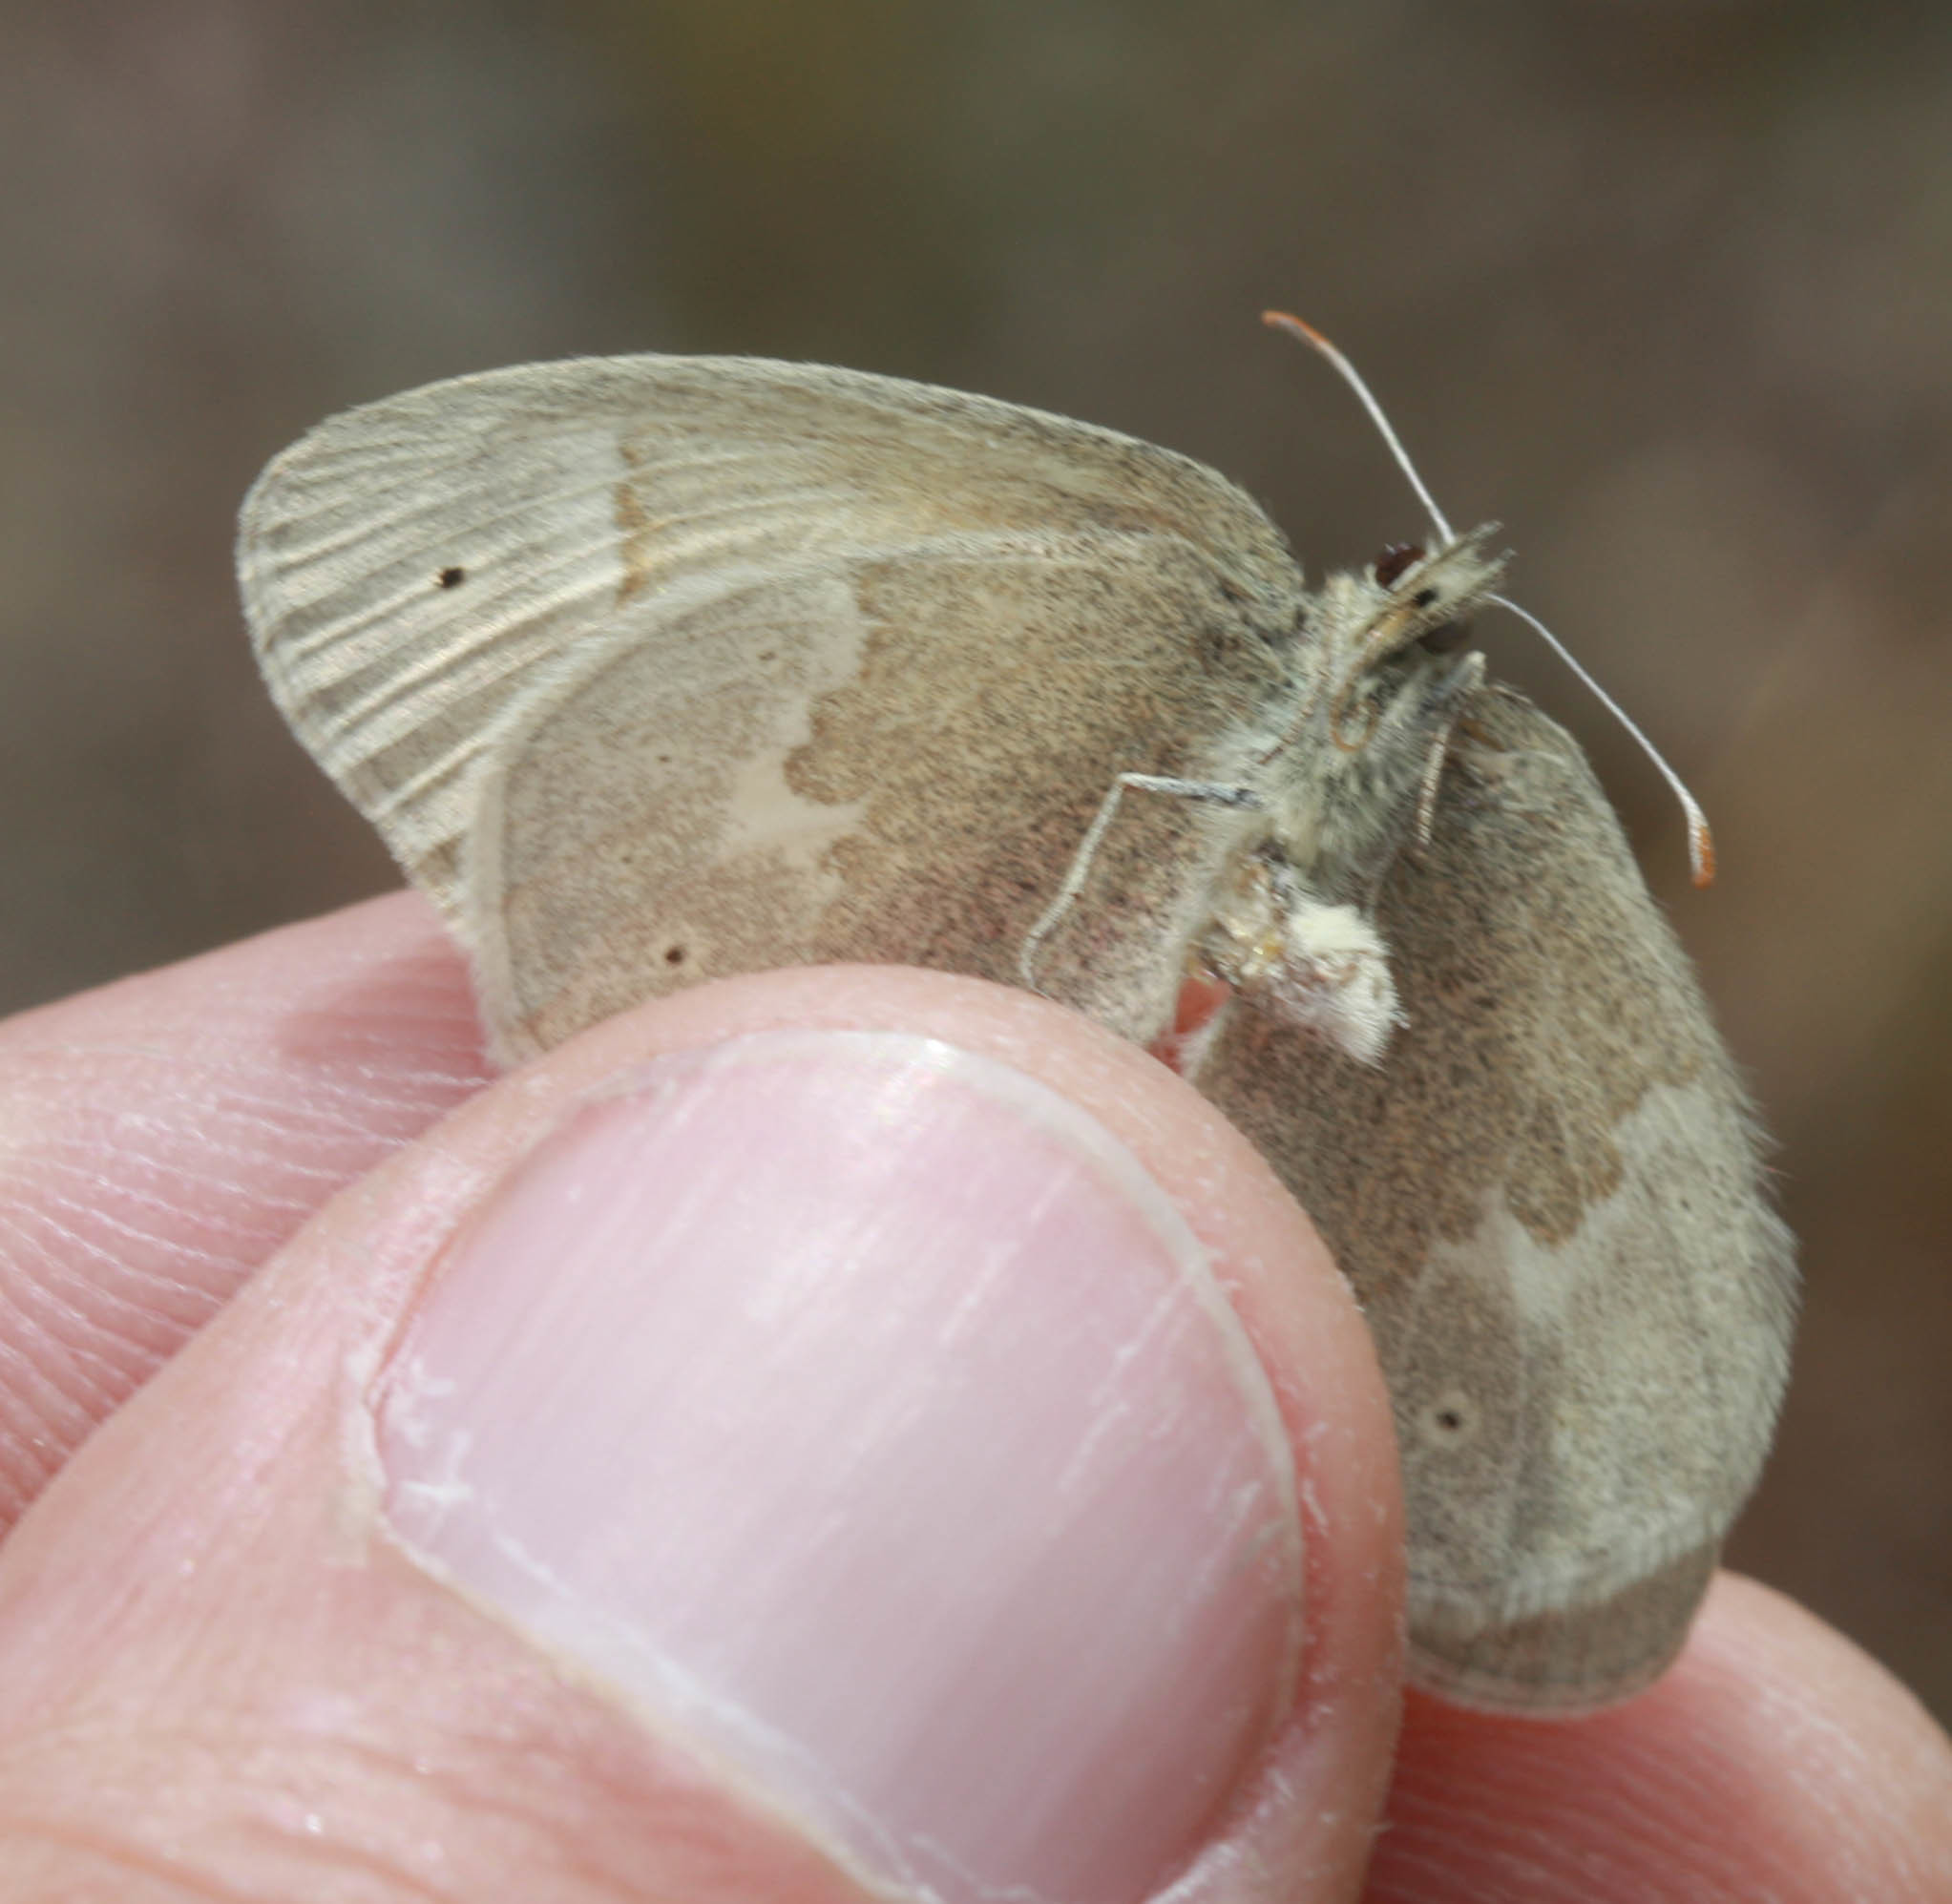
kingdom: Animalia
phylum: Arthropoda
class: Insecta
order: Lepidoptera
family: Nymphalidae
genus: Coenonympha
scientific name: Coenonympha california
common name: Common ringlet
